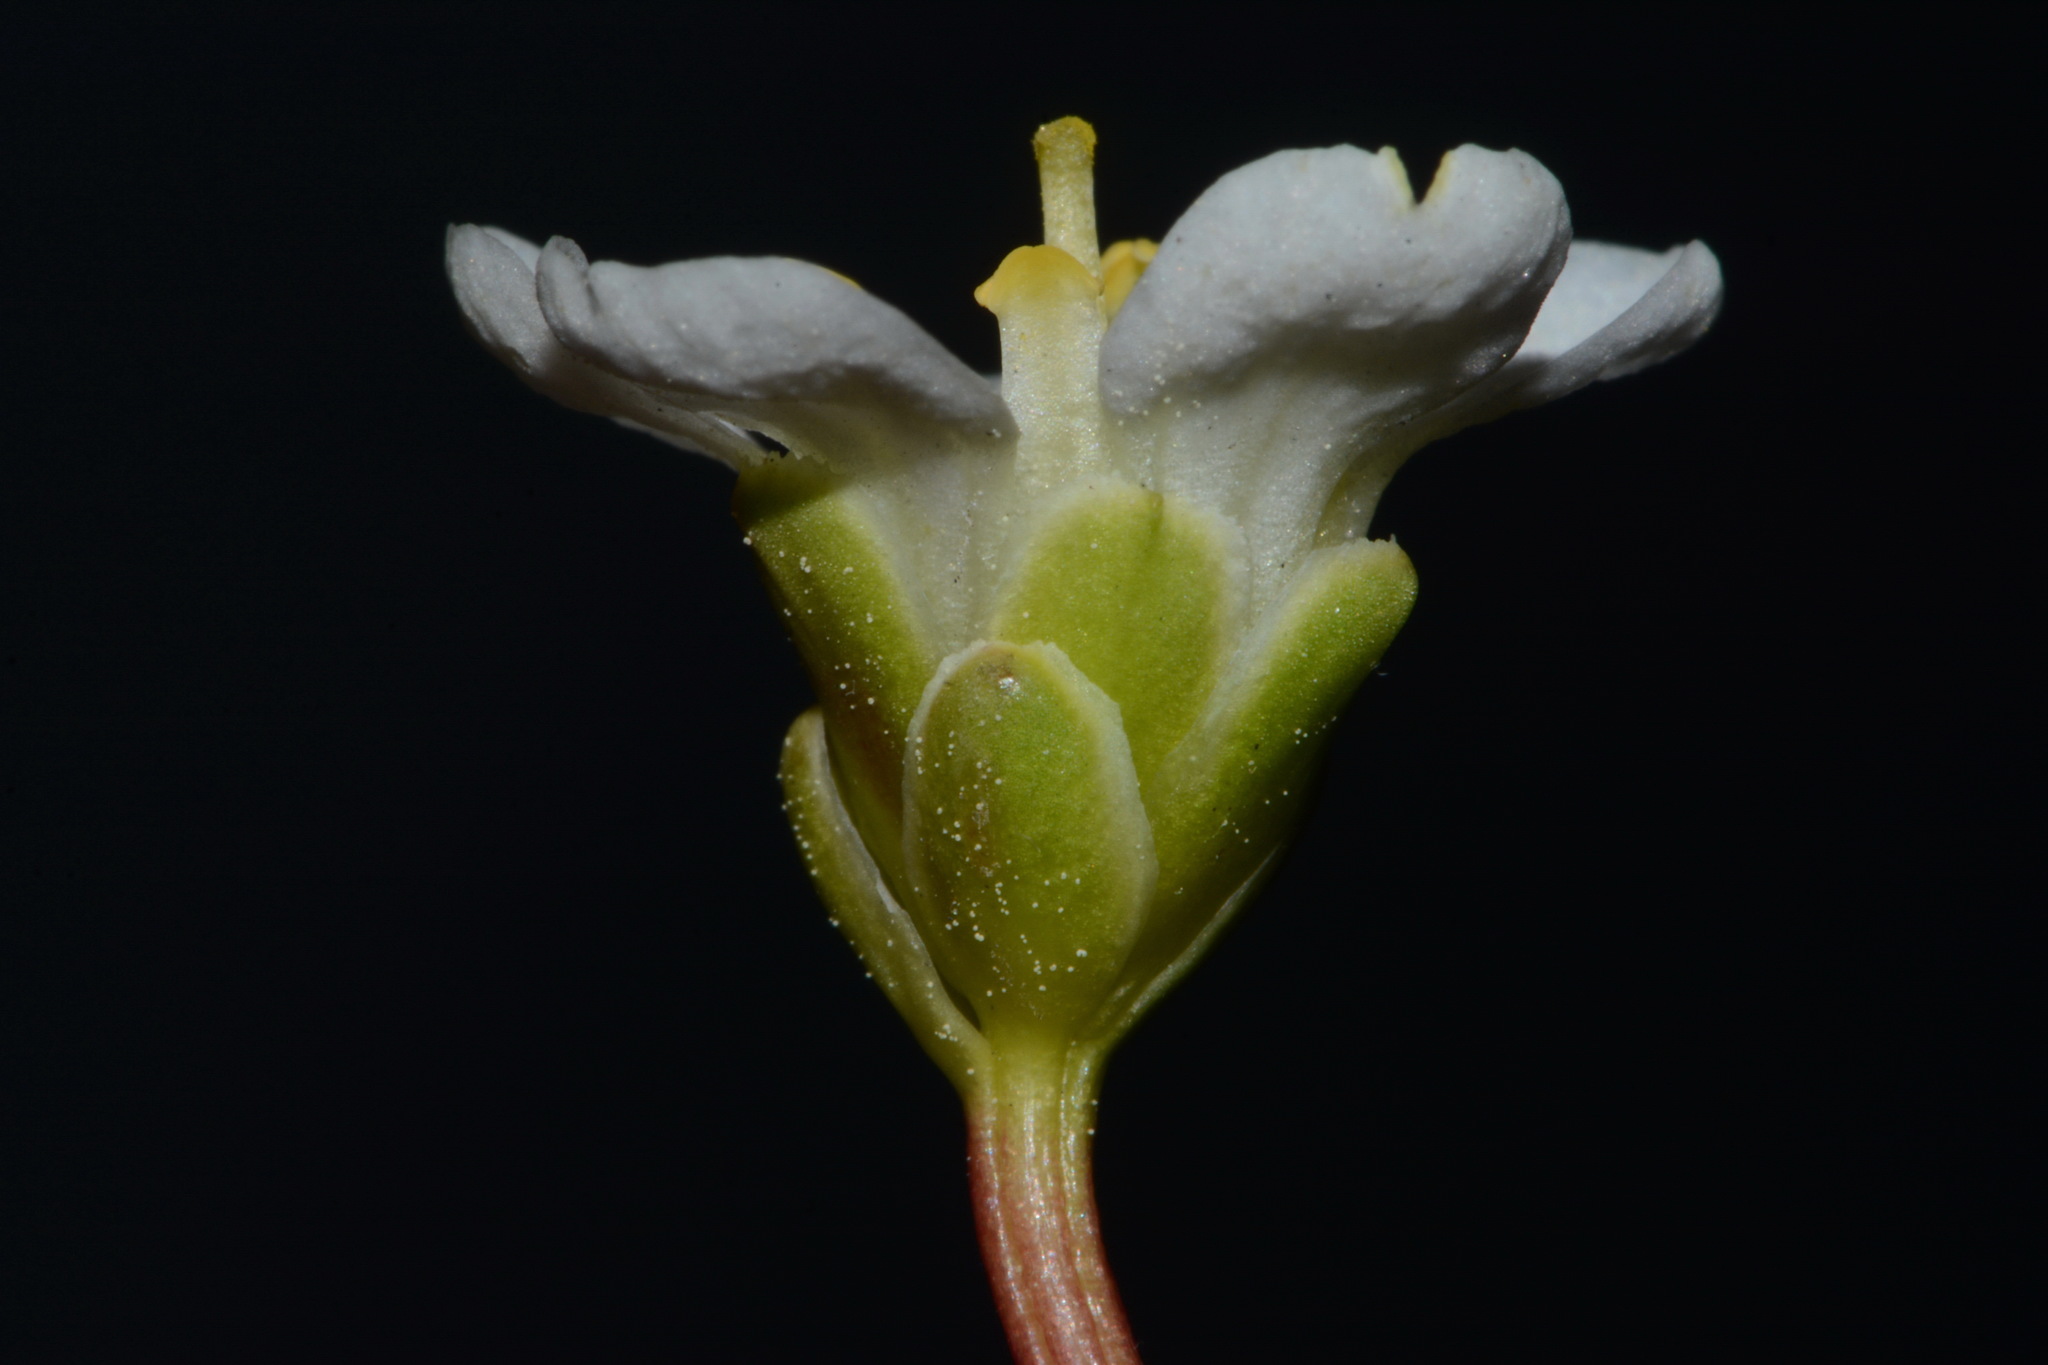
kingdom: Plantae
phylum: Tracheophyta
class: Magnoliopsida
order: Ericales
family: Diapensiaceae
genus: Diapensia
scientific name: Diapensia lapponica
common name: Diapensia
